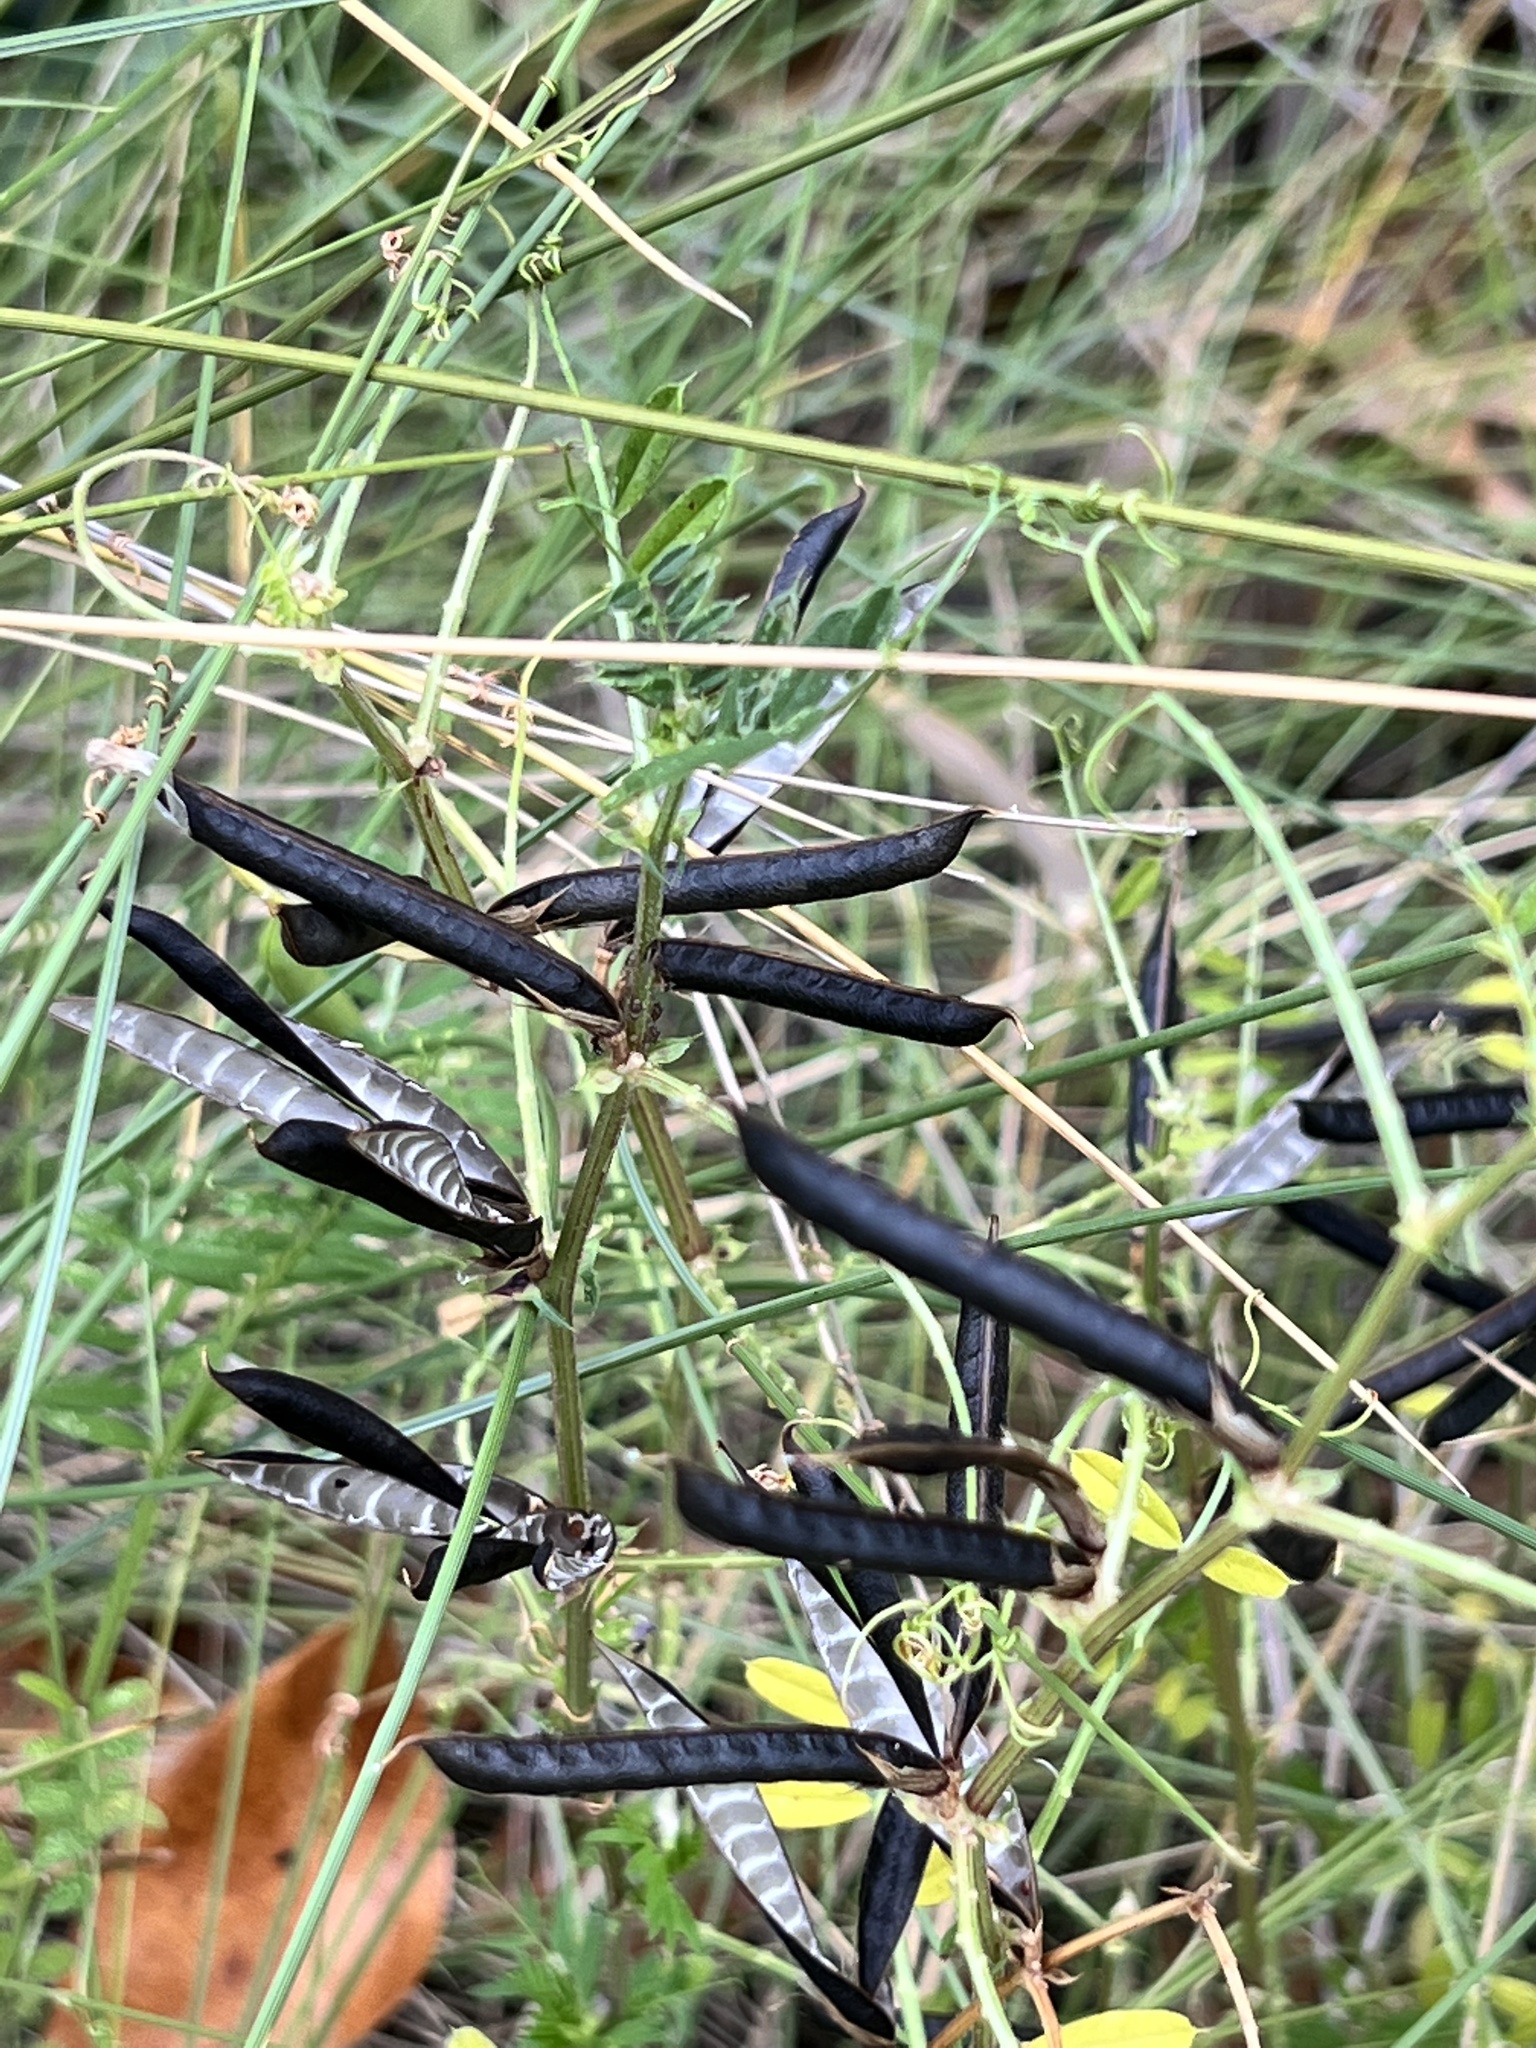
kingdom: Plantae
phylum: Tracheophyta
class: Magnoliopsida
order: Fabales
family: Fabaceae
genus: Vicia
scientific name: Vicia sativa
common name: Garden vetch
